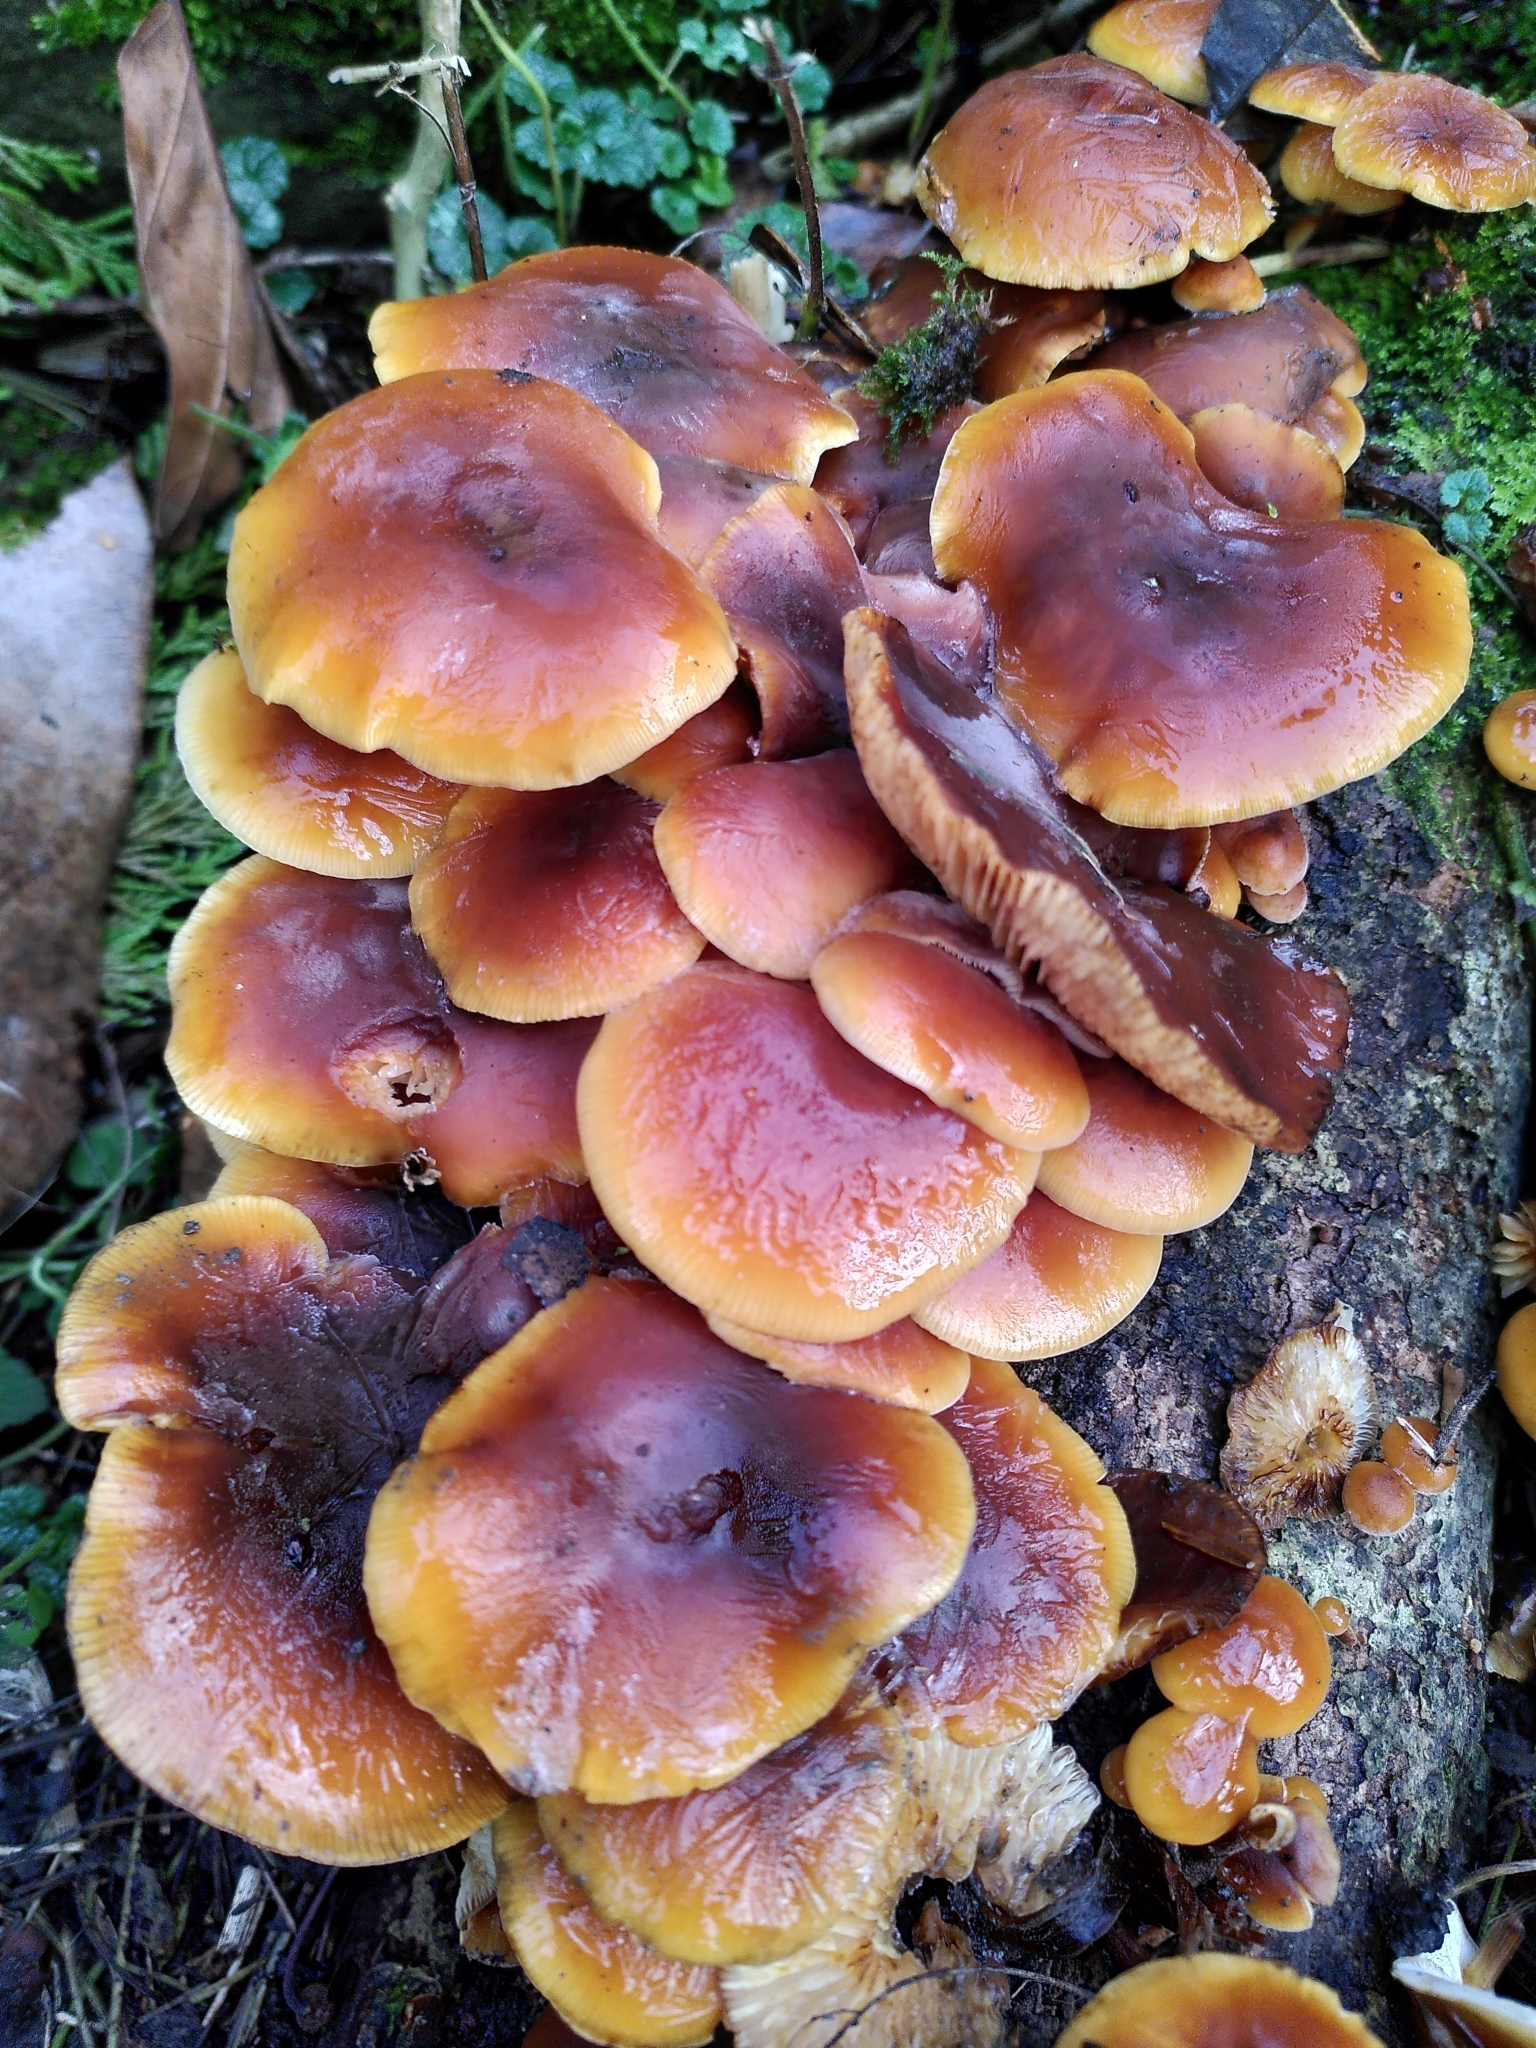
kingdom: Fungi
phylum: Basidiomycota
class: Agaricomycetes
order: Agaricales
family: Physalacriaceae
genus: Flammulina
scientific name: Flammulina
